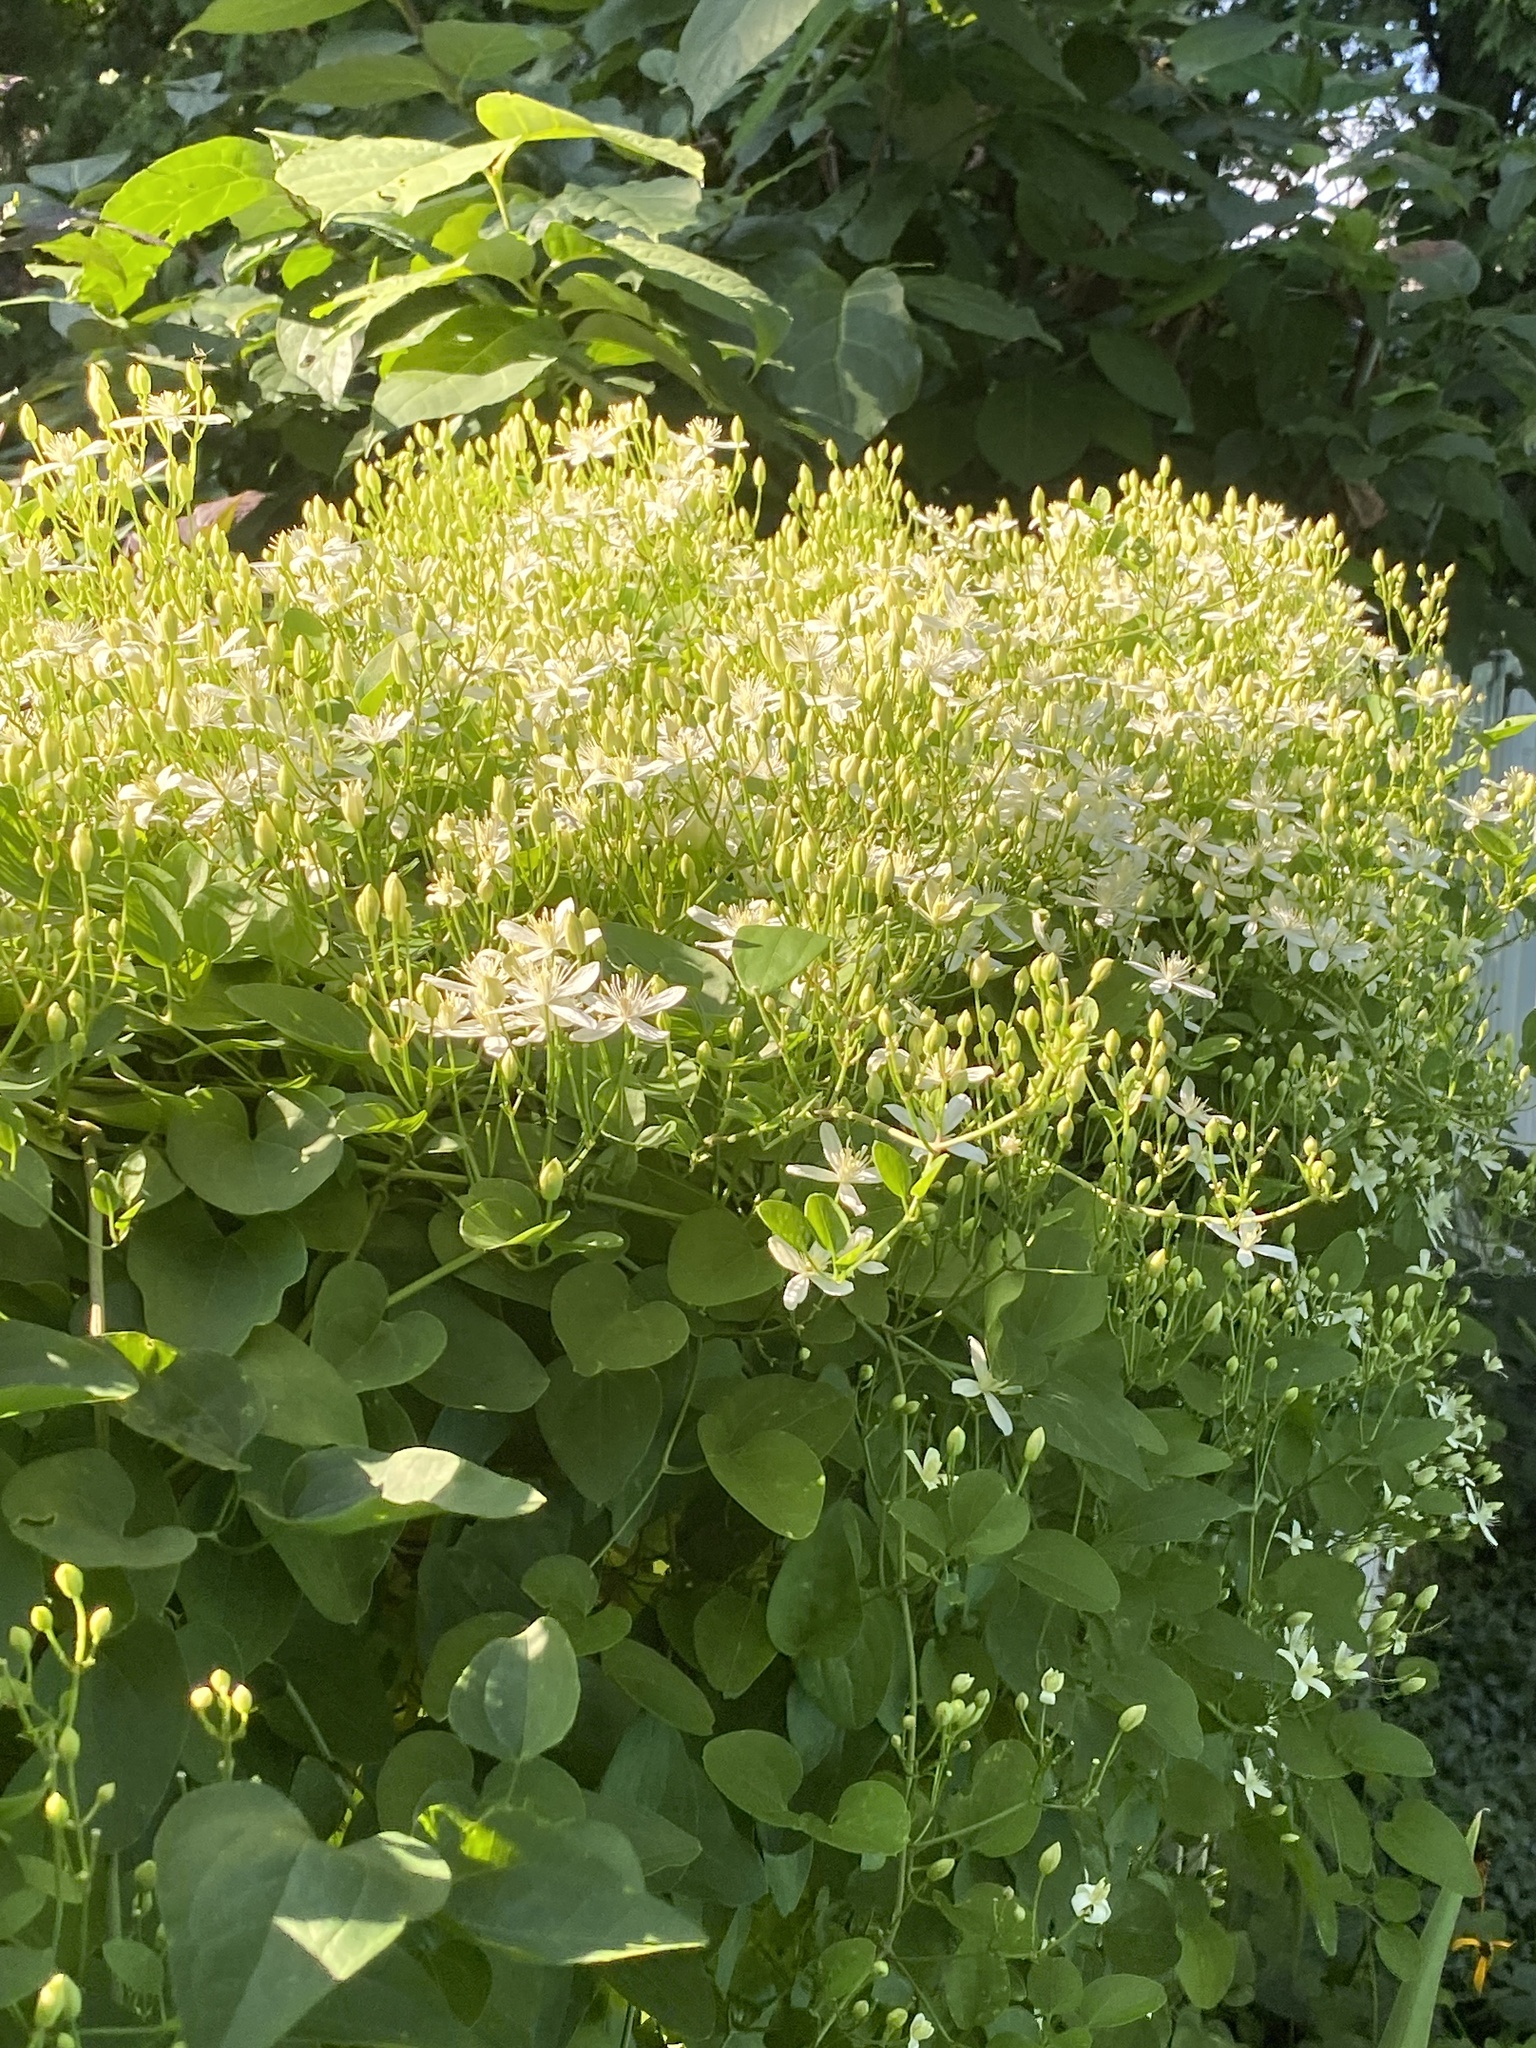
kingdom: Plantae
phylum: Tracheophyta
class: Magnoliopsida
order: Ranunculales
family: Ranunculaceae
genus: Clematis
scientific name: Clematis terniflora
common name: Sweet autumn clematis
